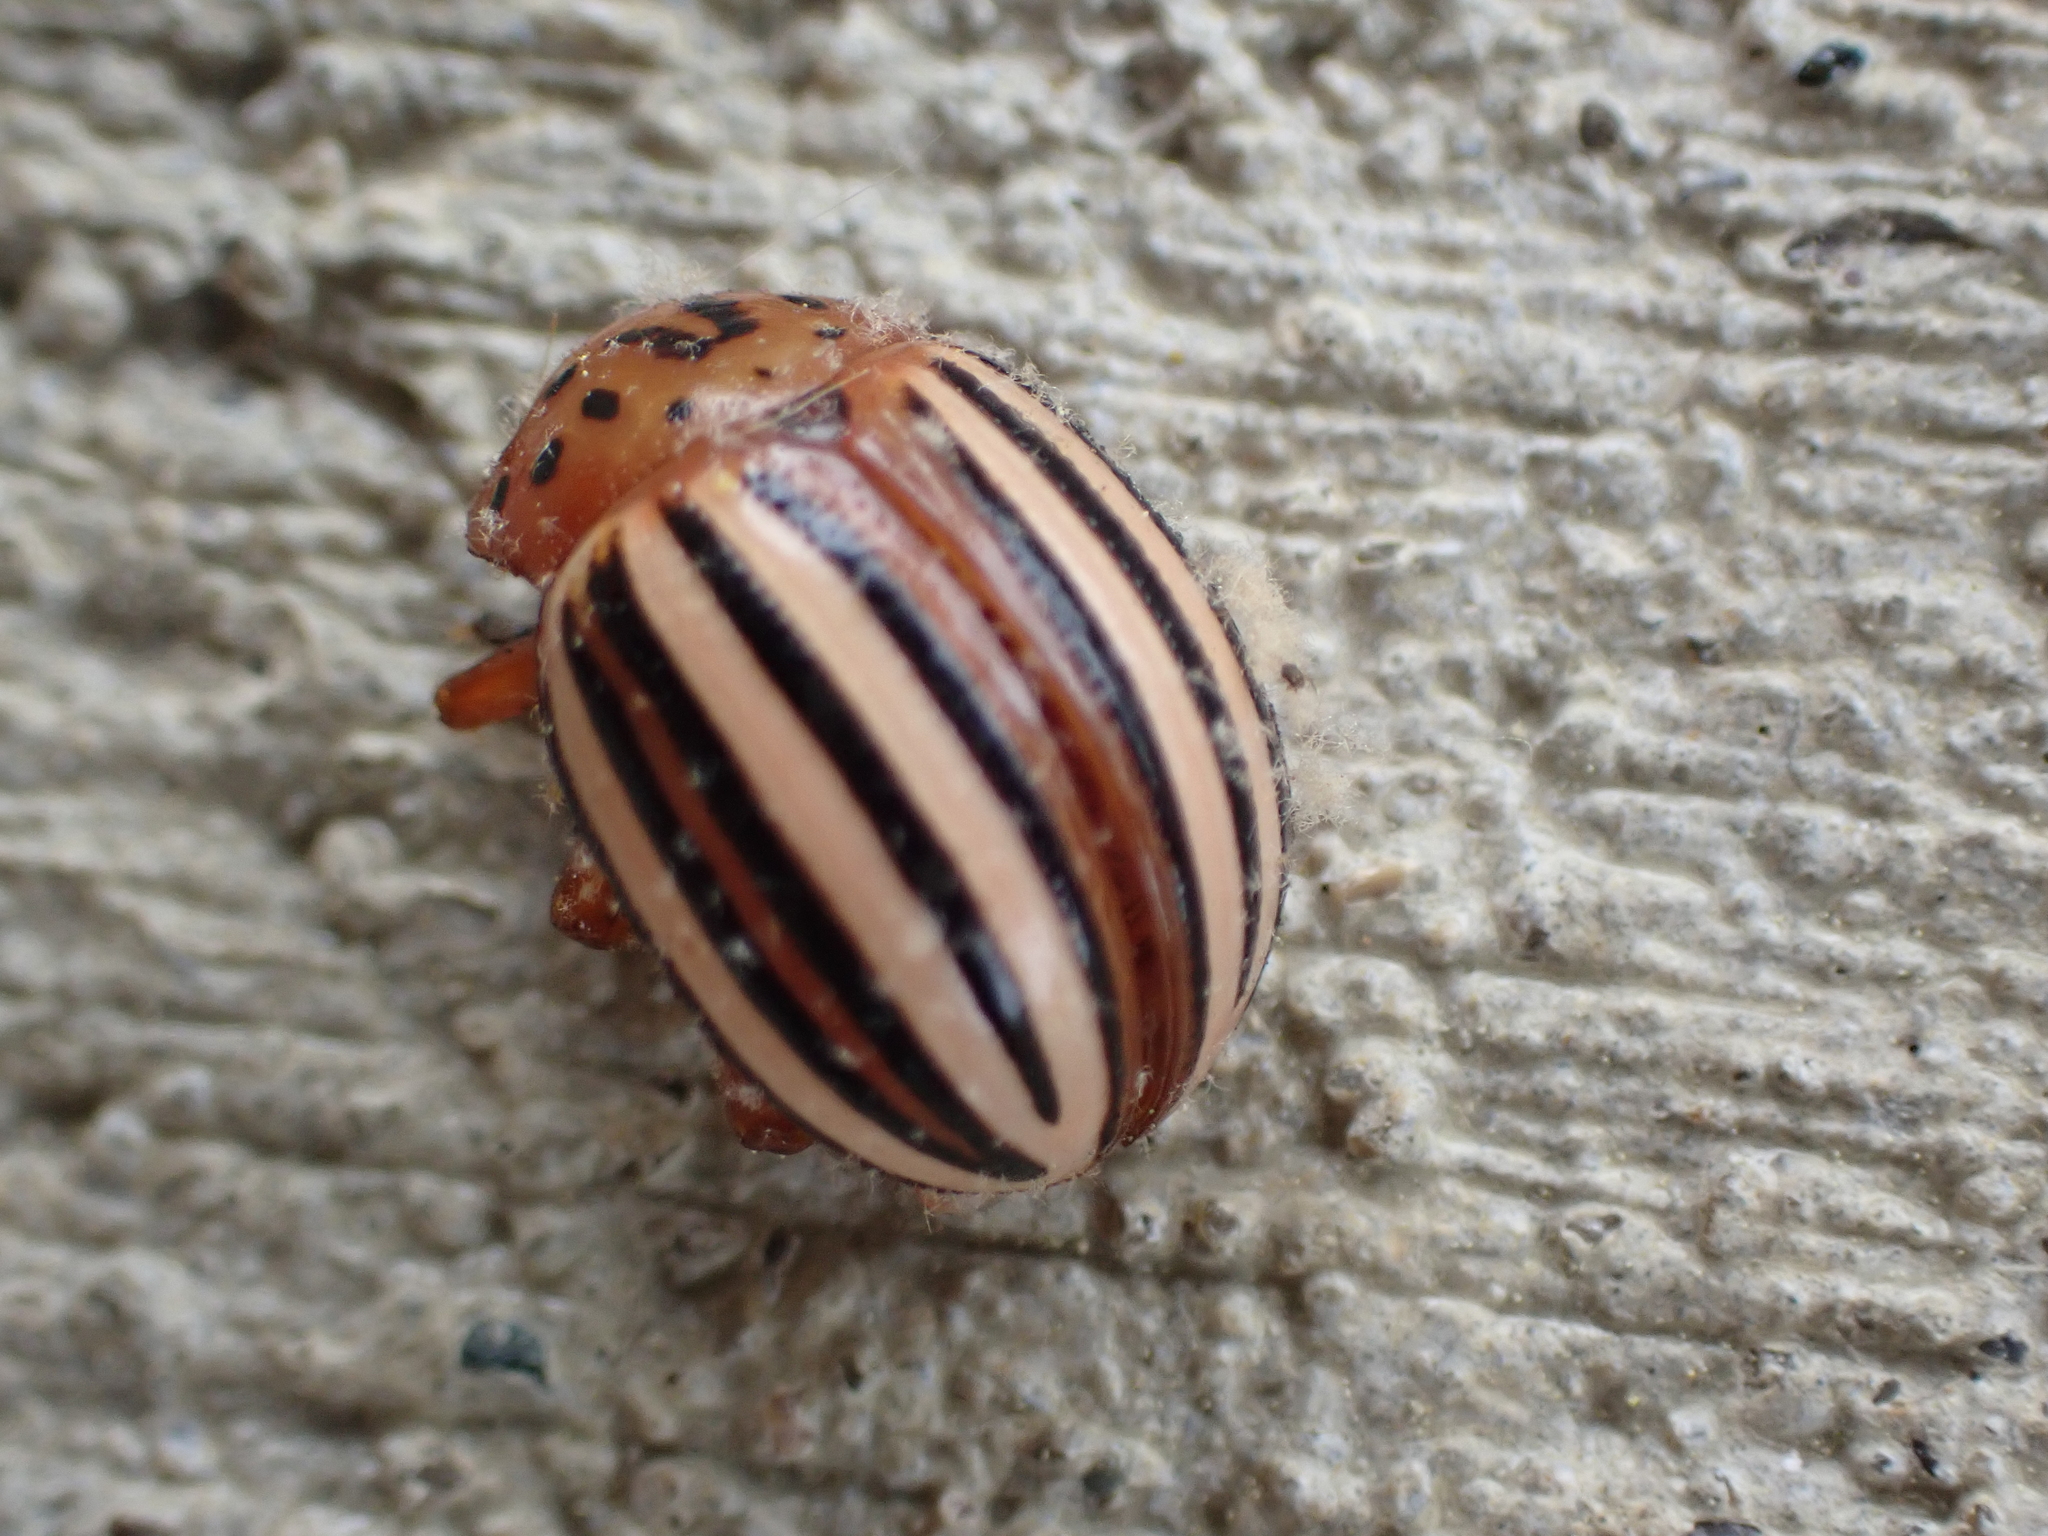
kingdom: Animalia
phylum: Arthropoda
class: Insecta
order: Coleoptera
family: Chrysomelidae
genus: Leptinotarsa
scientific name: Leptinotarsa juncta
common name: False potato beetle
